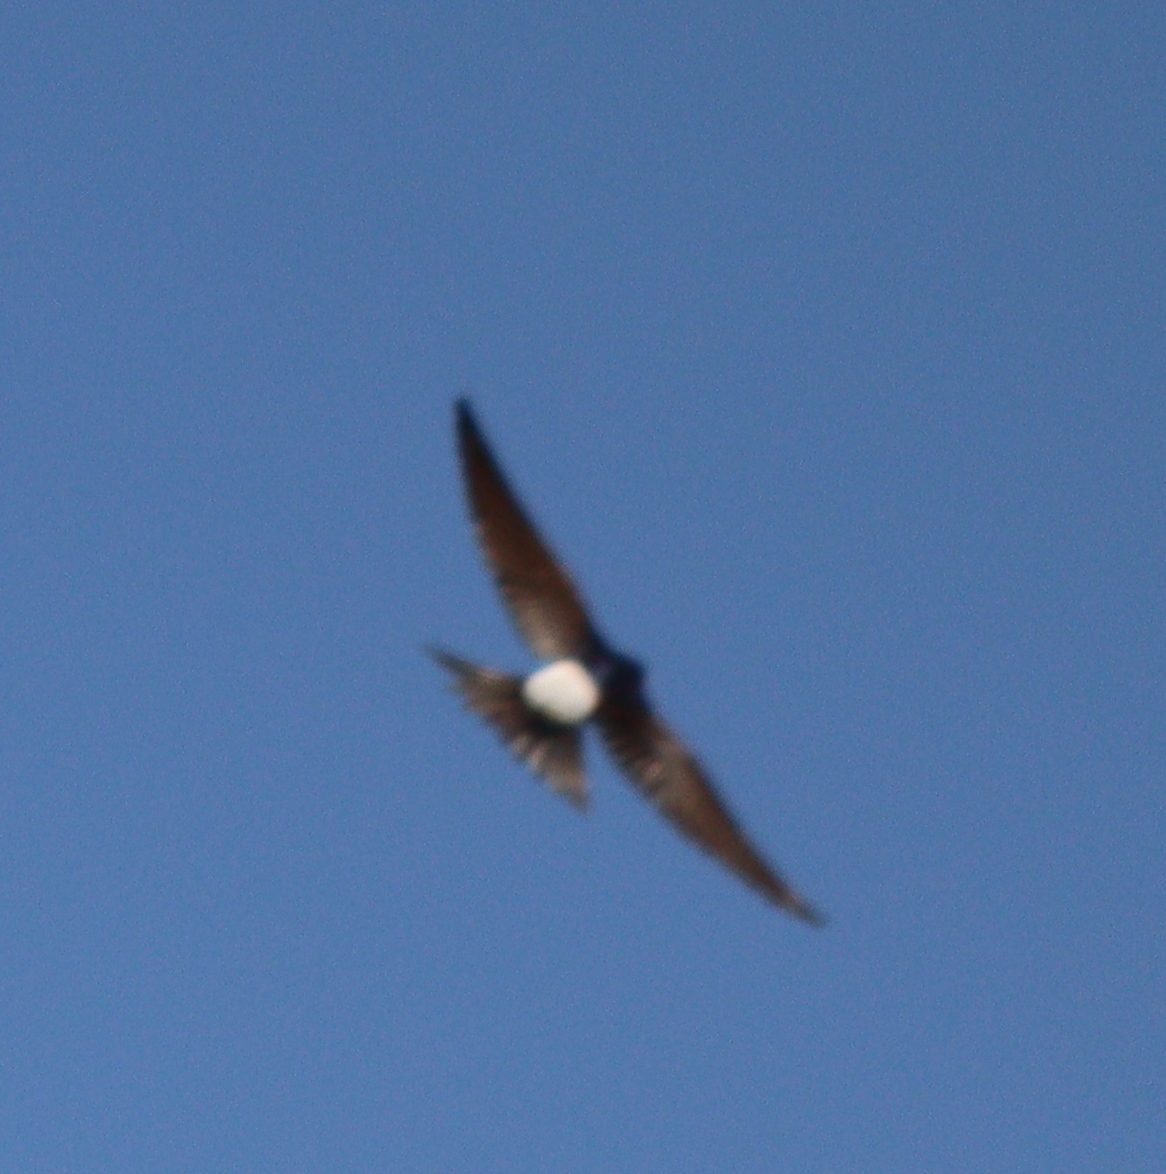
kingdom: Animalia
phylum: Chordata
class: Aves
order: Passeriformes
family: Hirundinidae
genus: Delichon
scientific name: Delichon urbicum
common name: Common house martin
